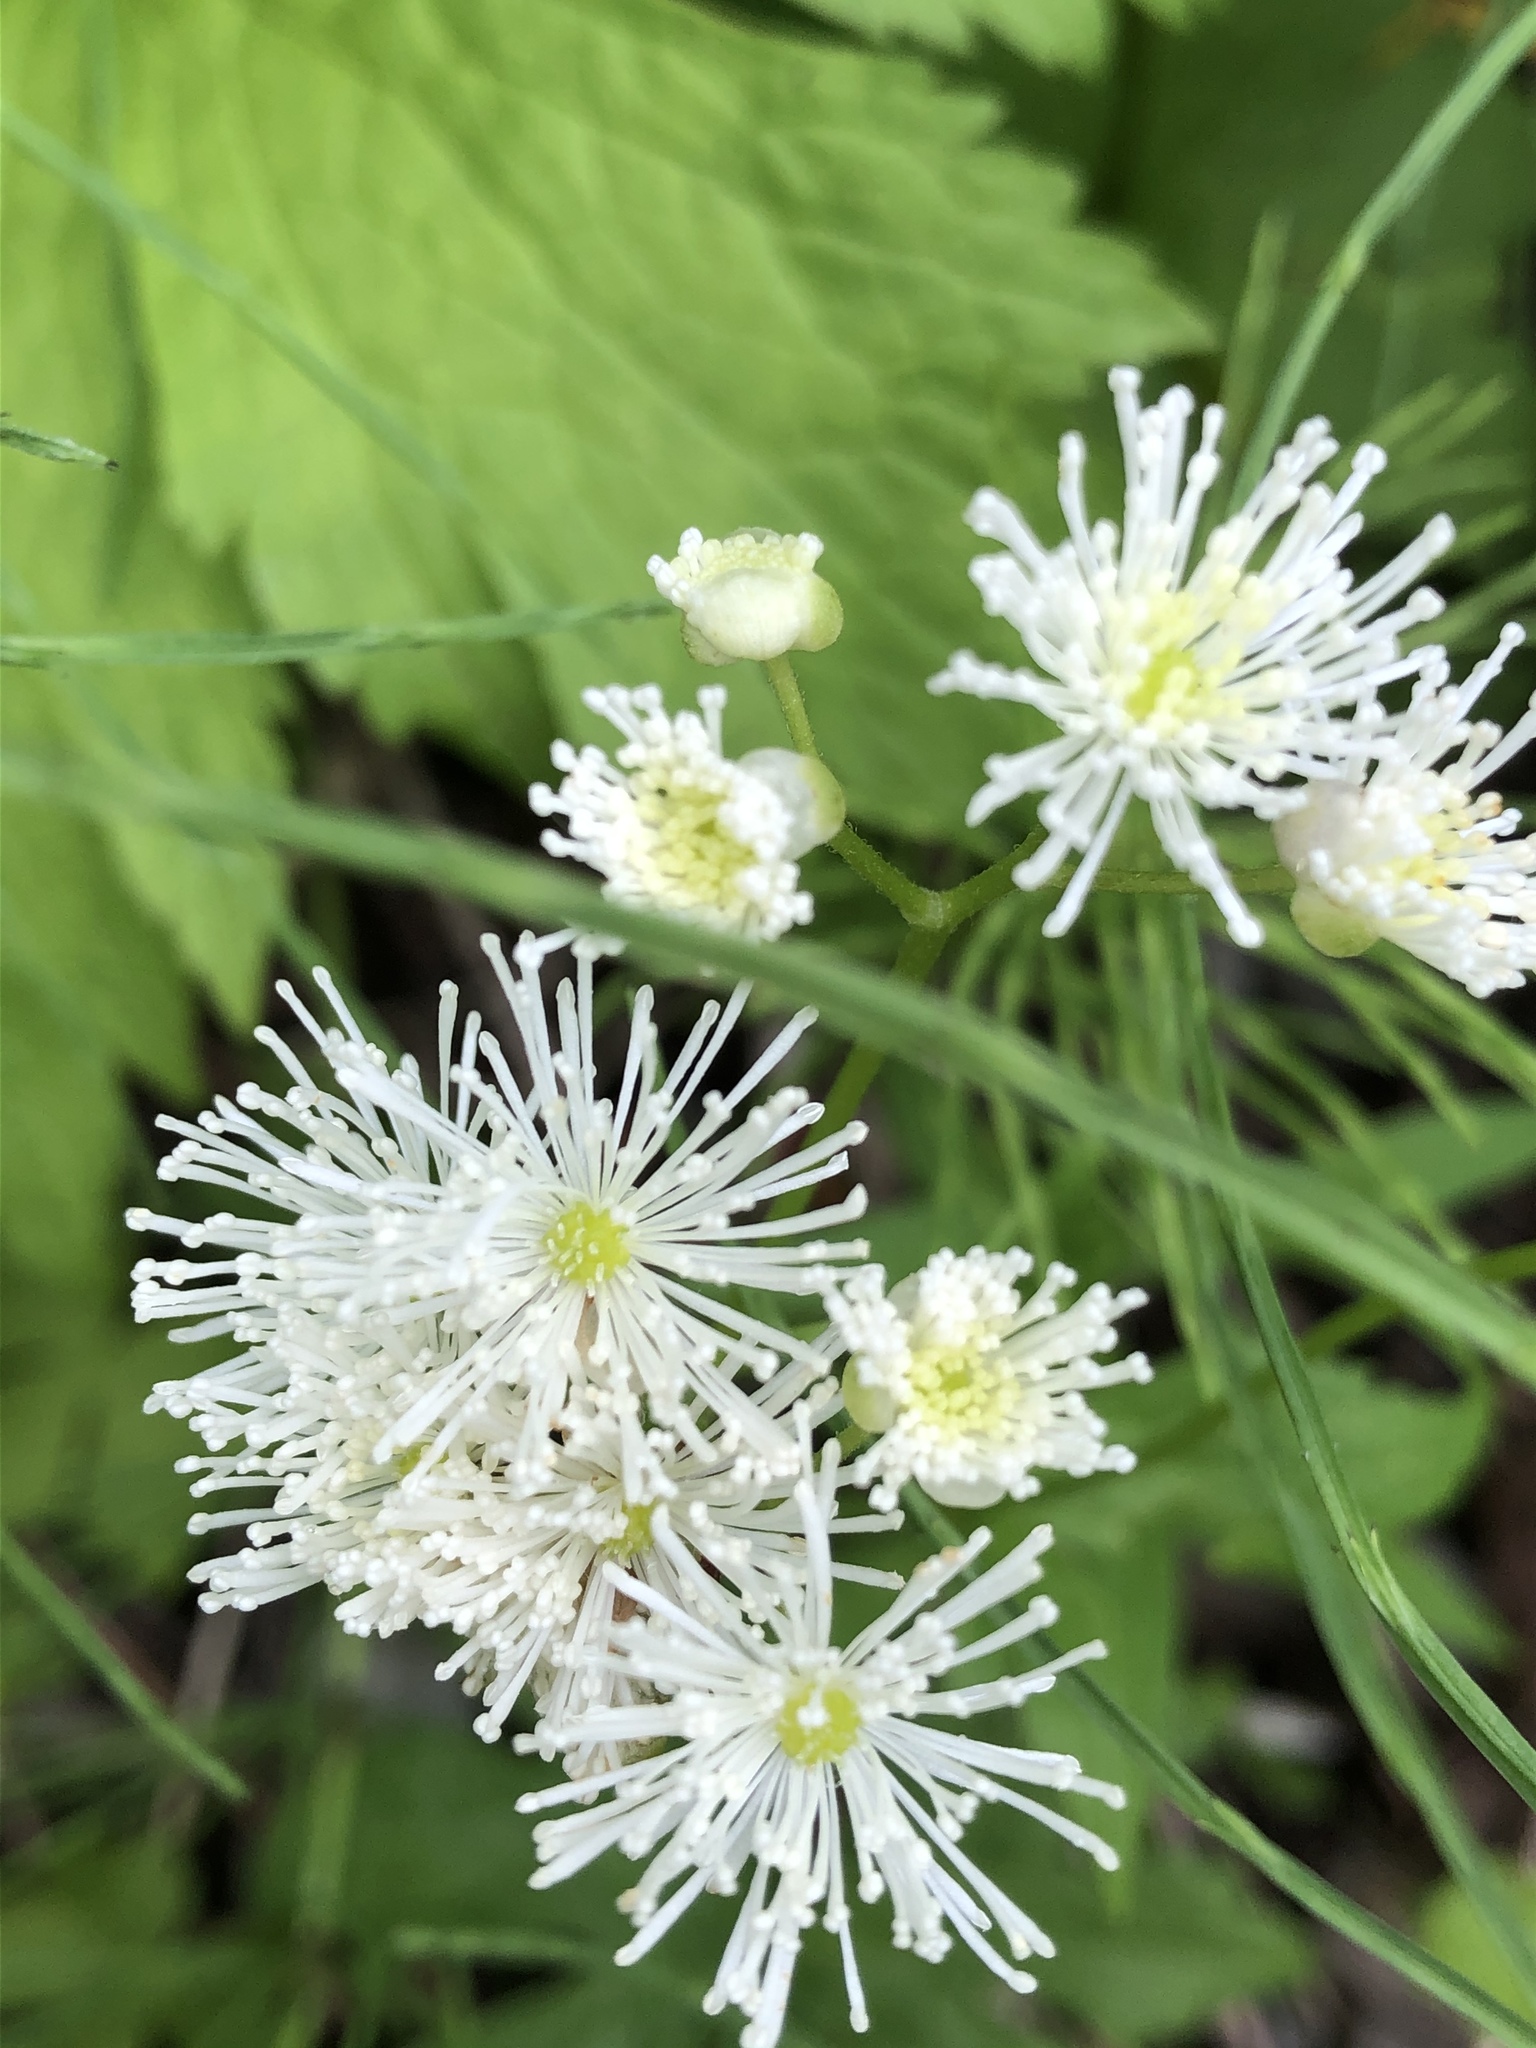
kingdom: Plantae
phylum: Tracheophyta
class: Magnoliopsida
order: Ranunculales
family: Ranunculaceae
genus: Trautvetteria
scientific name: Trautvetteria carolinensis
